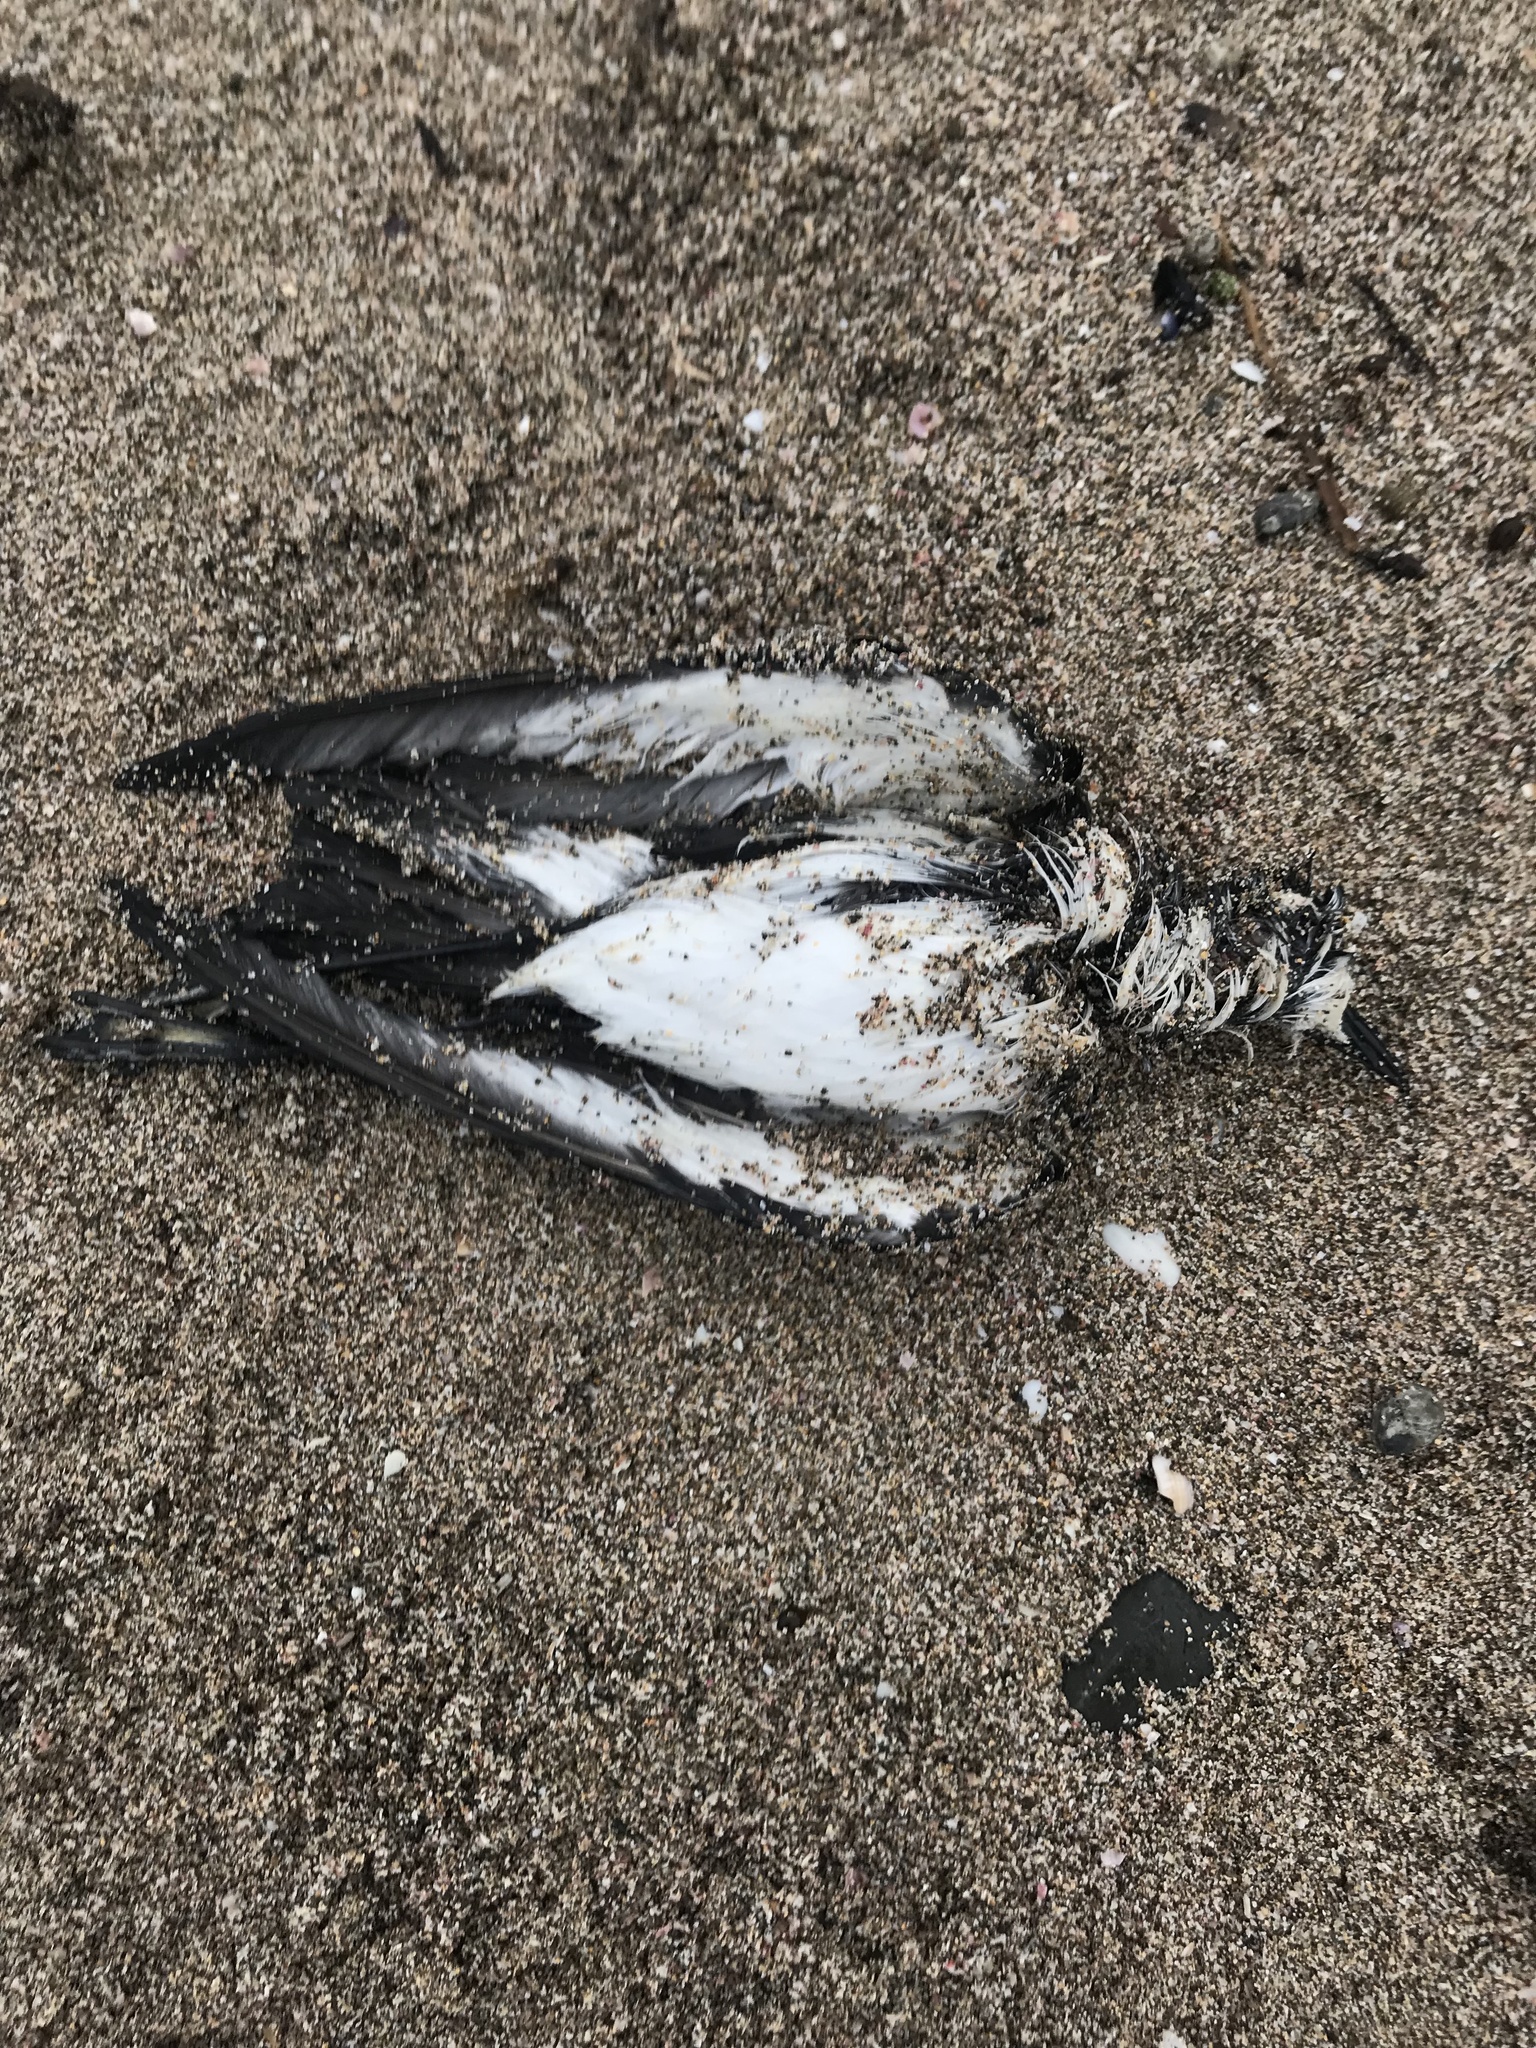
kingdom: Animalia
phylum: Chordata
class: Aves
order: Procellariiformes
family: Hydrobatidae
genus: Pelagodroma
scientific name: Pelagodroma marina
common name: White-faced storm-petrel
